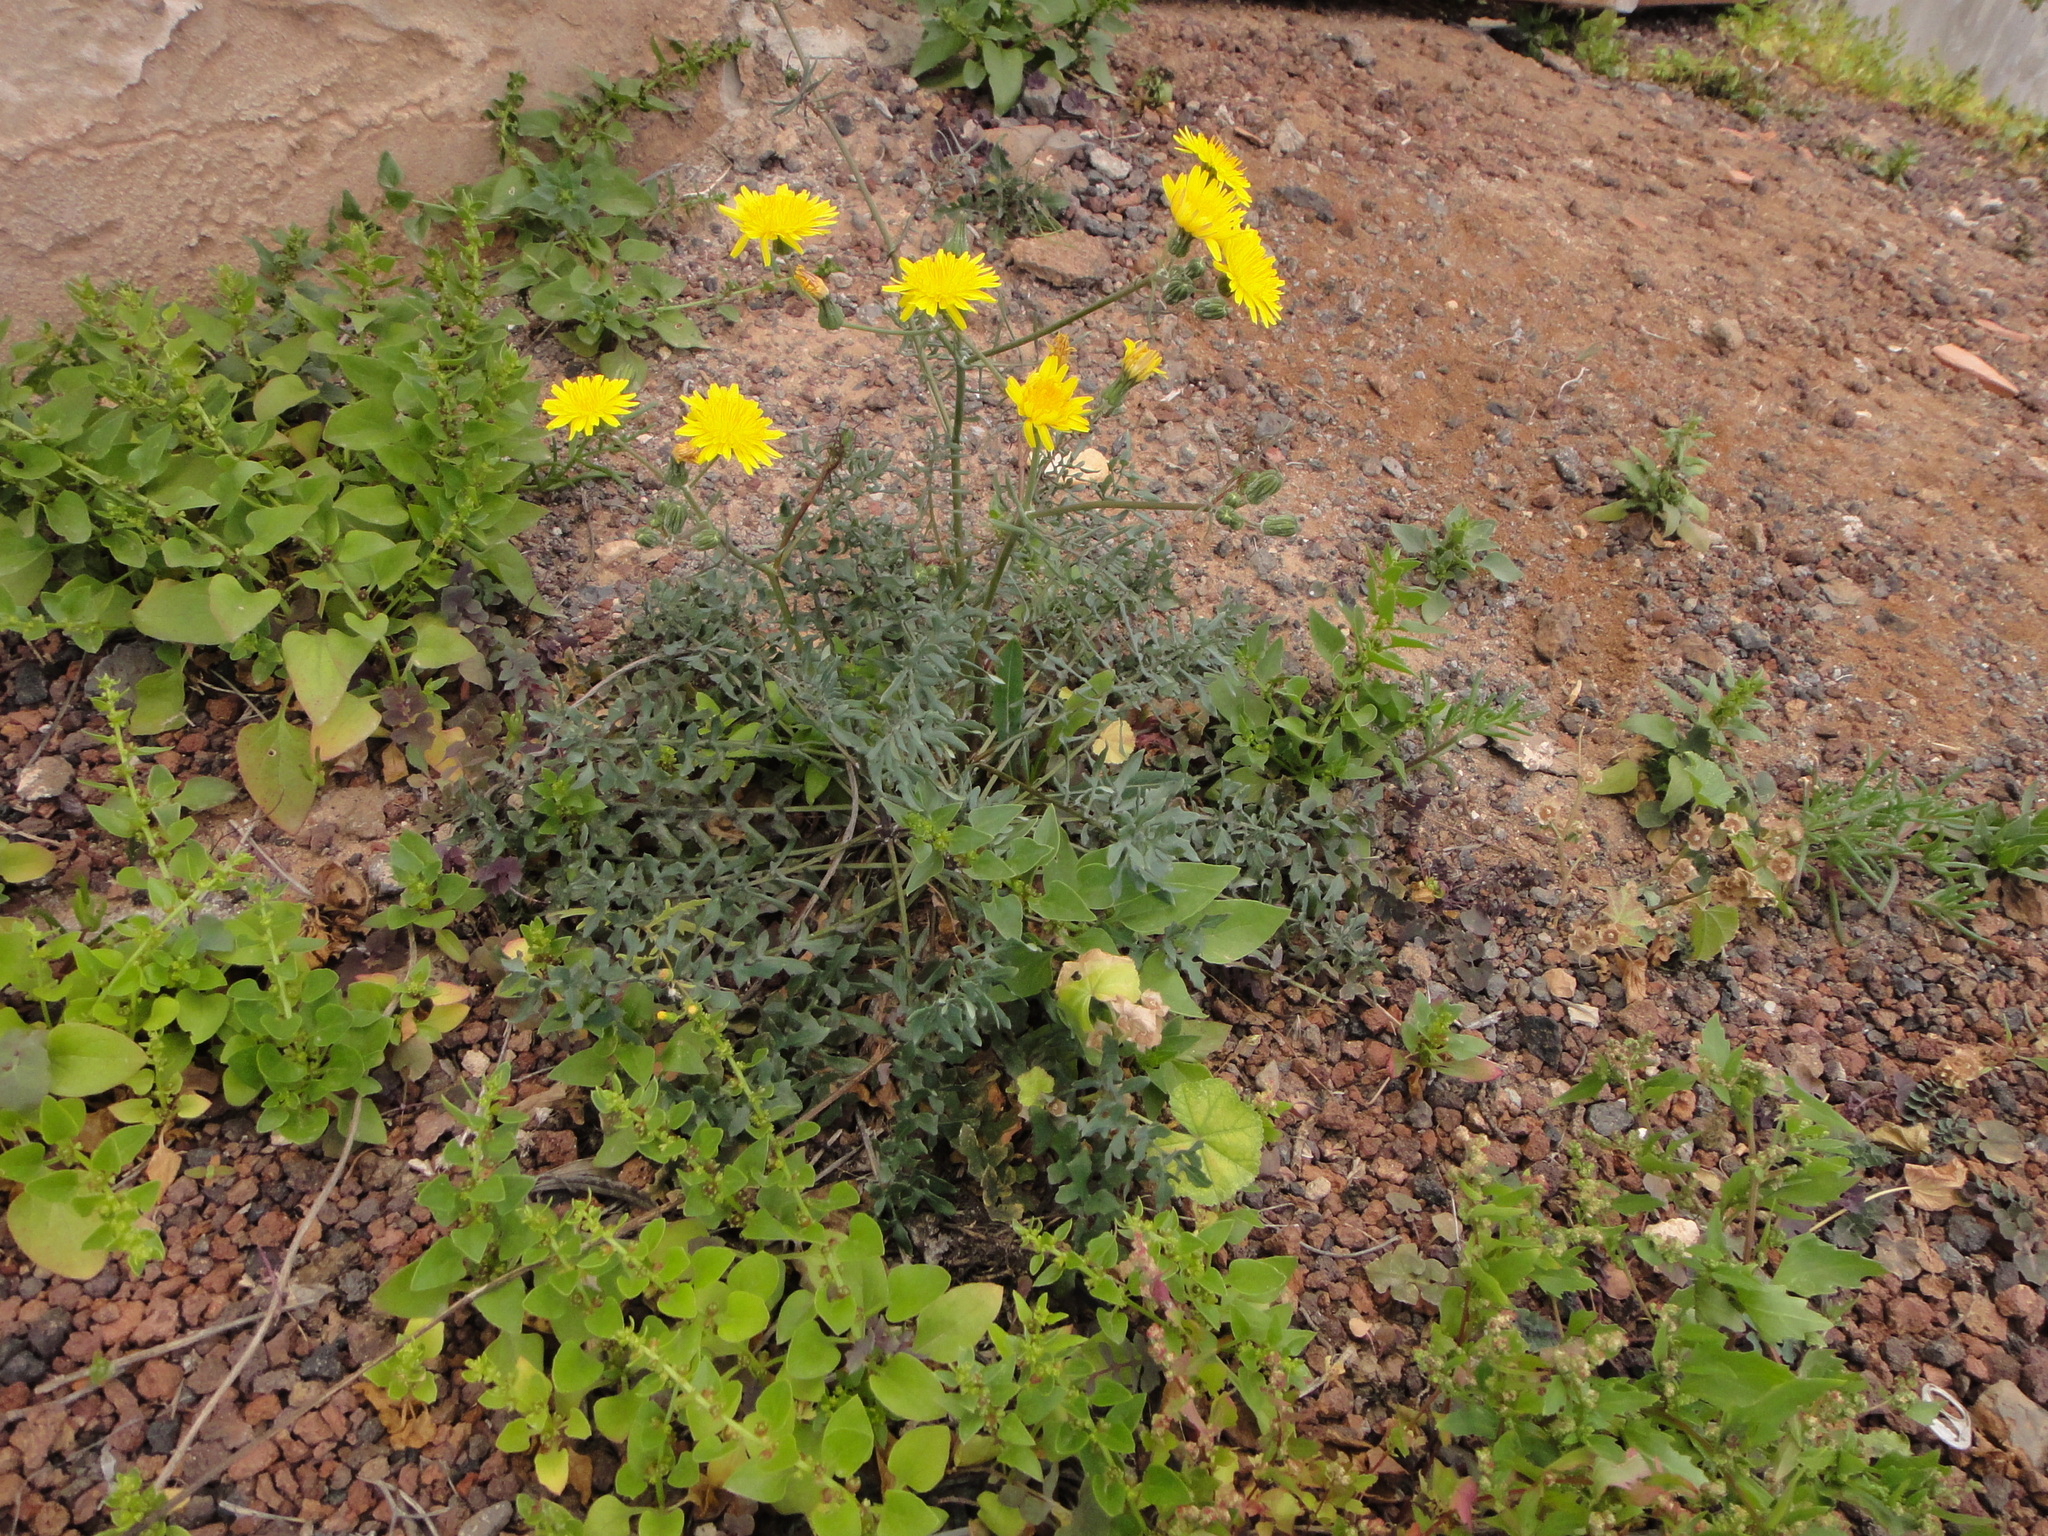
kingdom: Plantae
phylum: Tracheophyta
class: Magnoliopsida
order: Asterales
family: Asteraceae
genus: Sonchus
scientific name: Sonchus tenerrimus
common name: Clammy sowthistle
